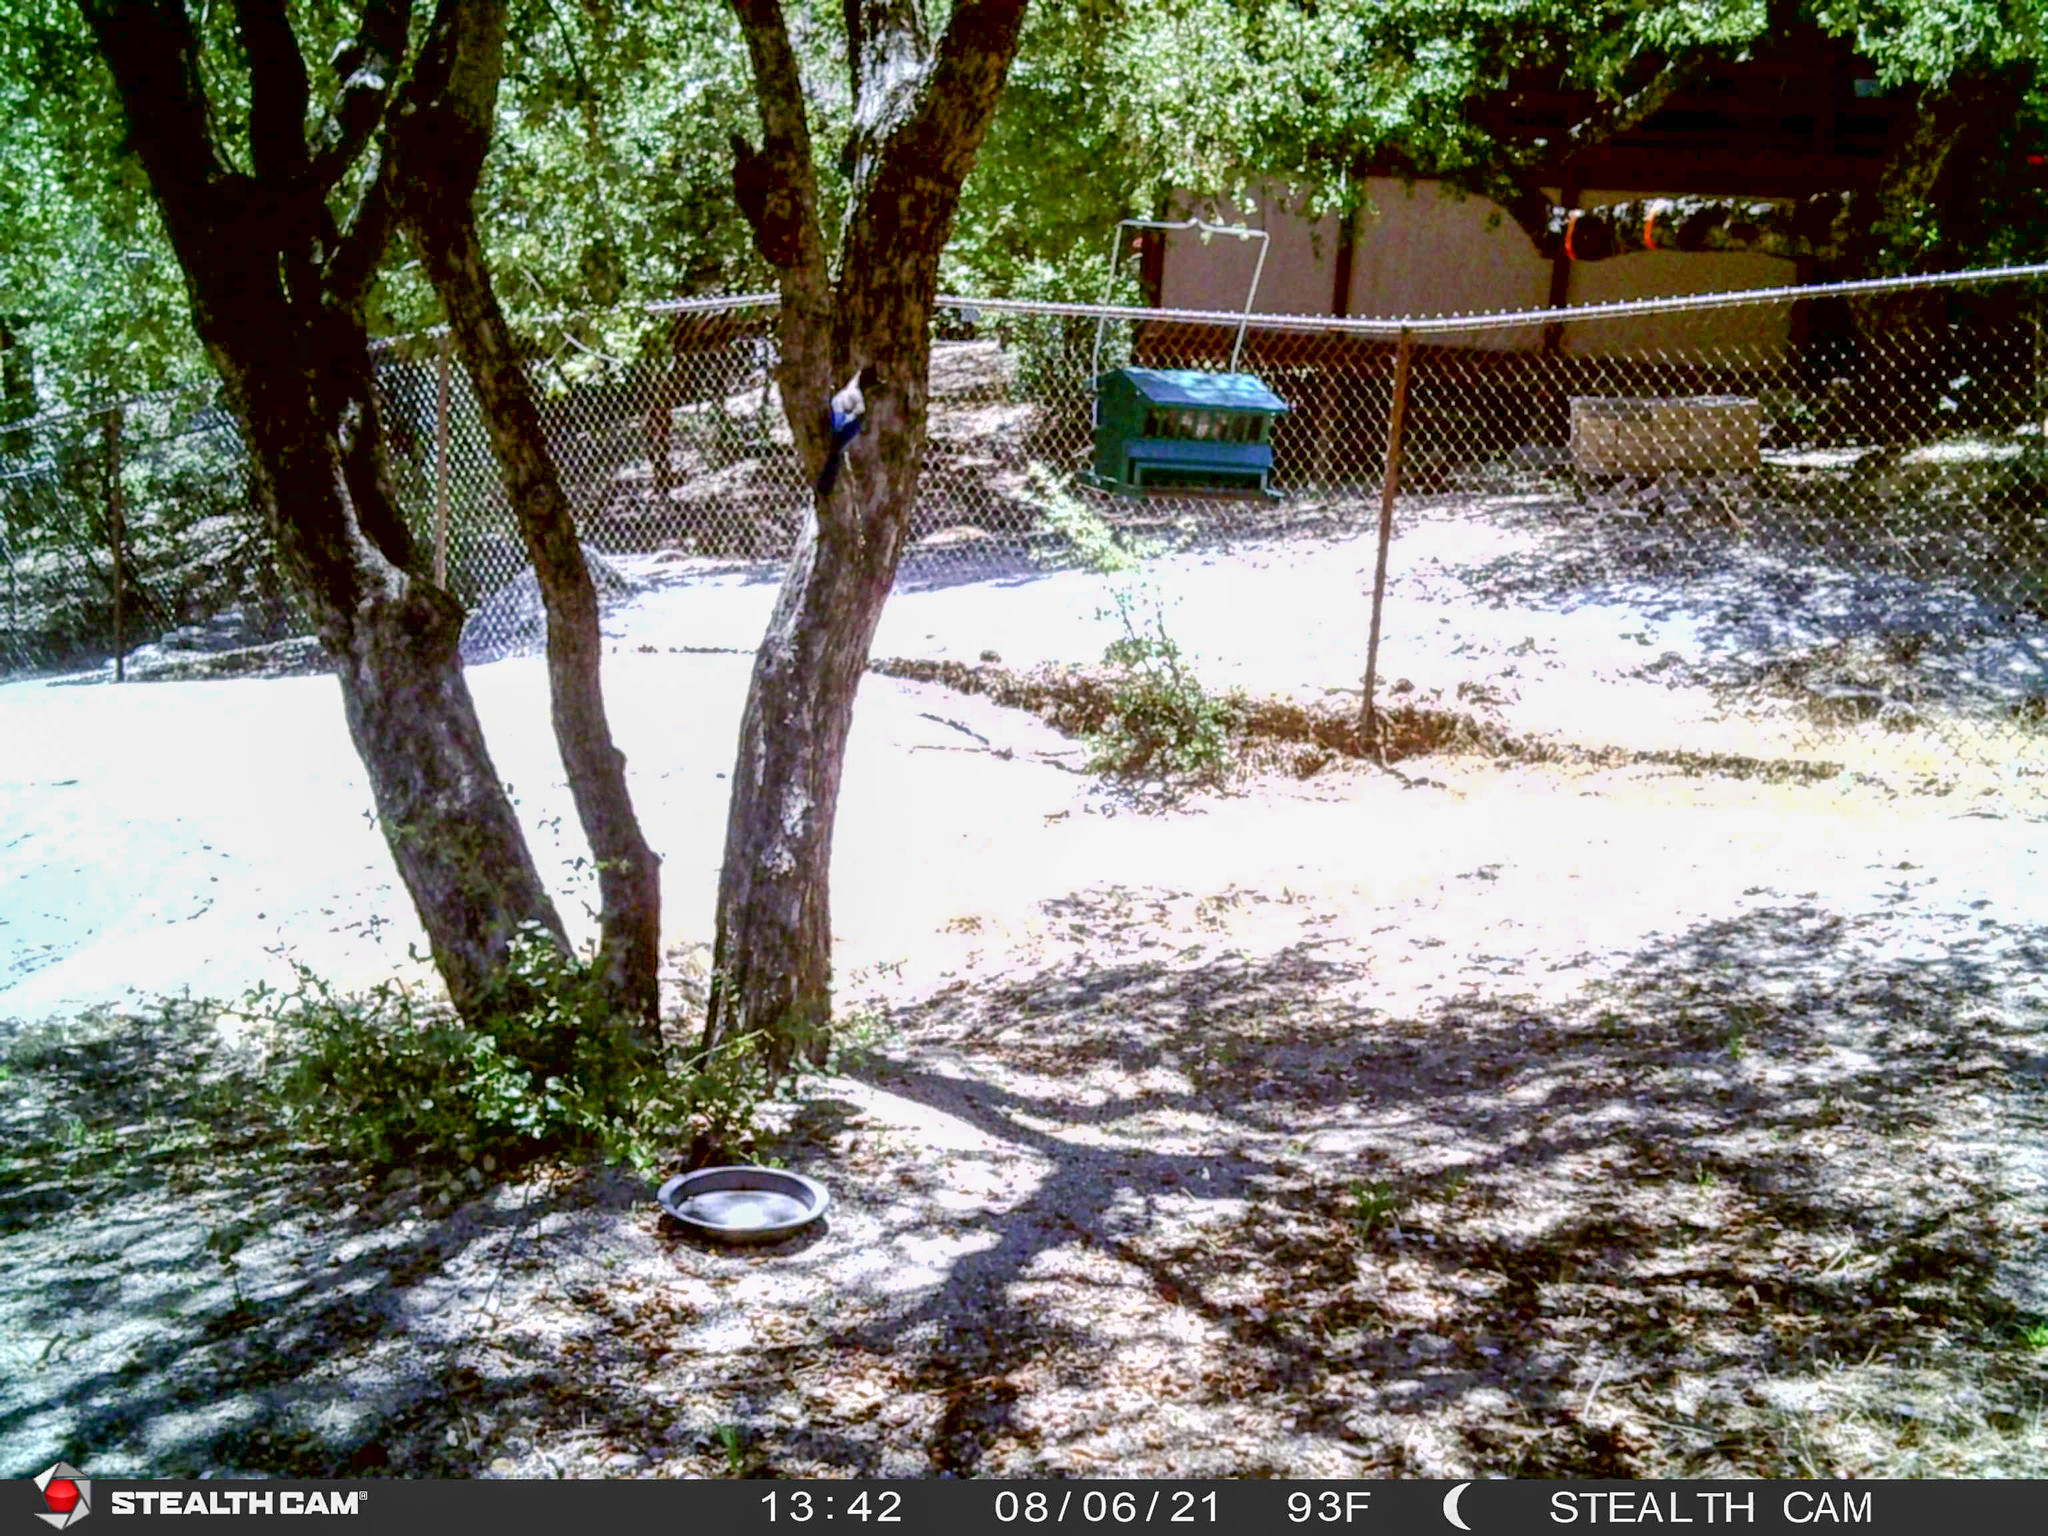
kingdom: Animalia
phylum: Chordata
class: Aves
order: Passeriformes
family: Corvidae
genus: Cyanocitta
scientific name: Cyanocitta stelleri
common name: Steller's jay
